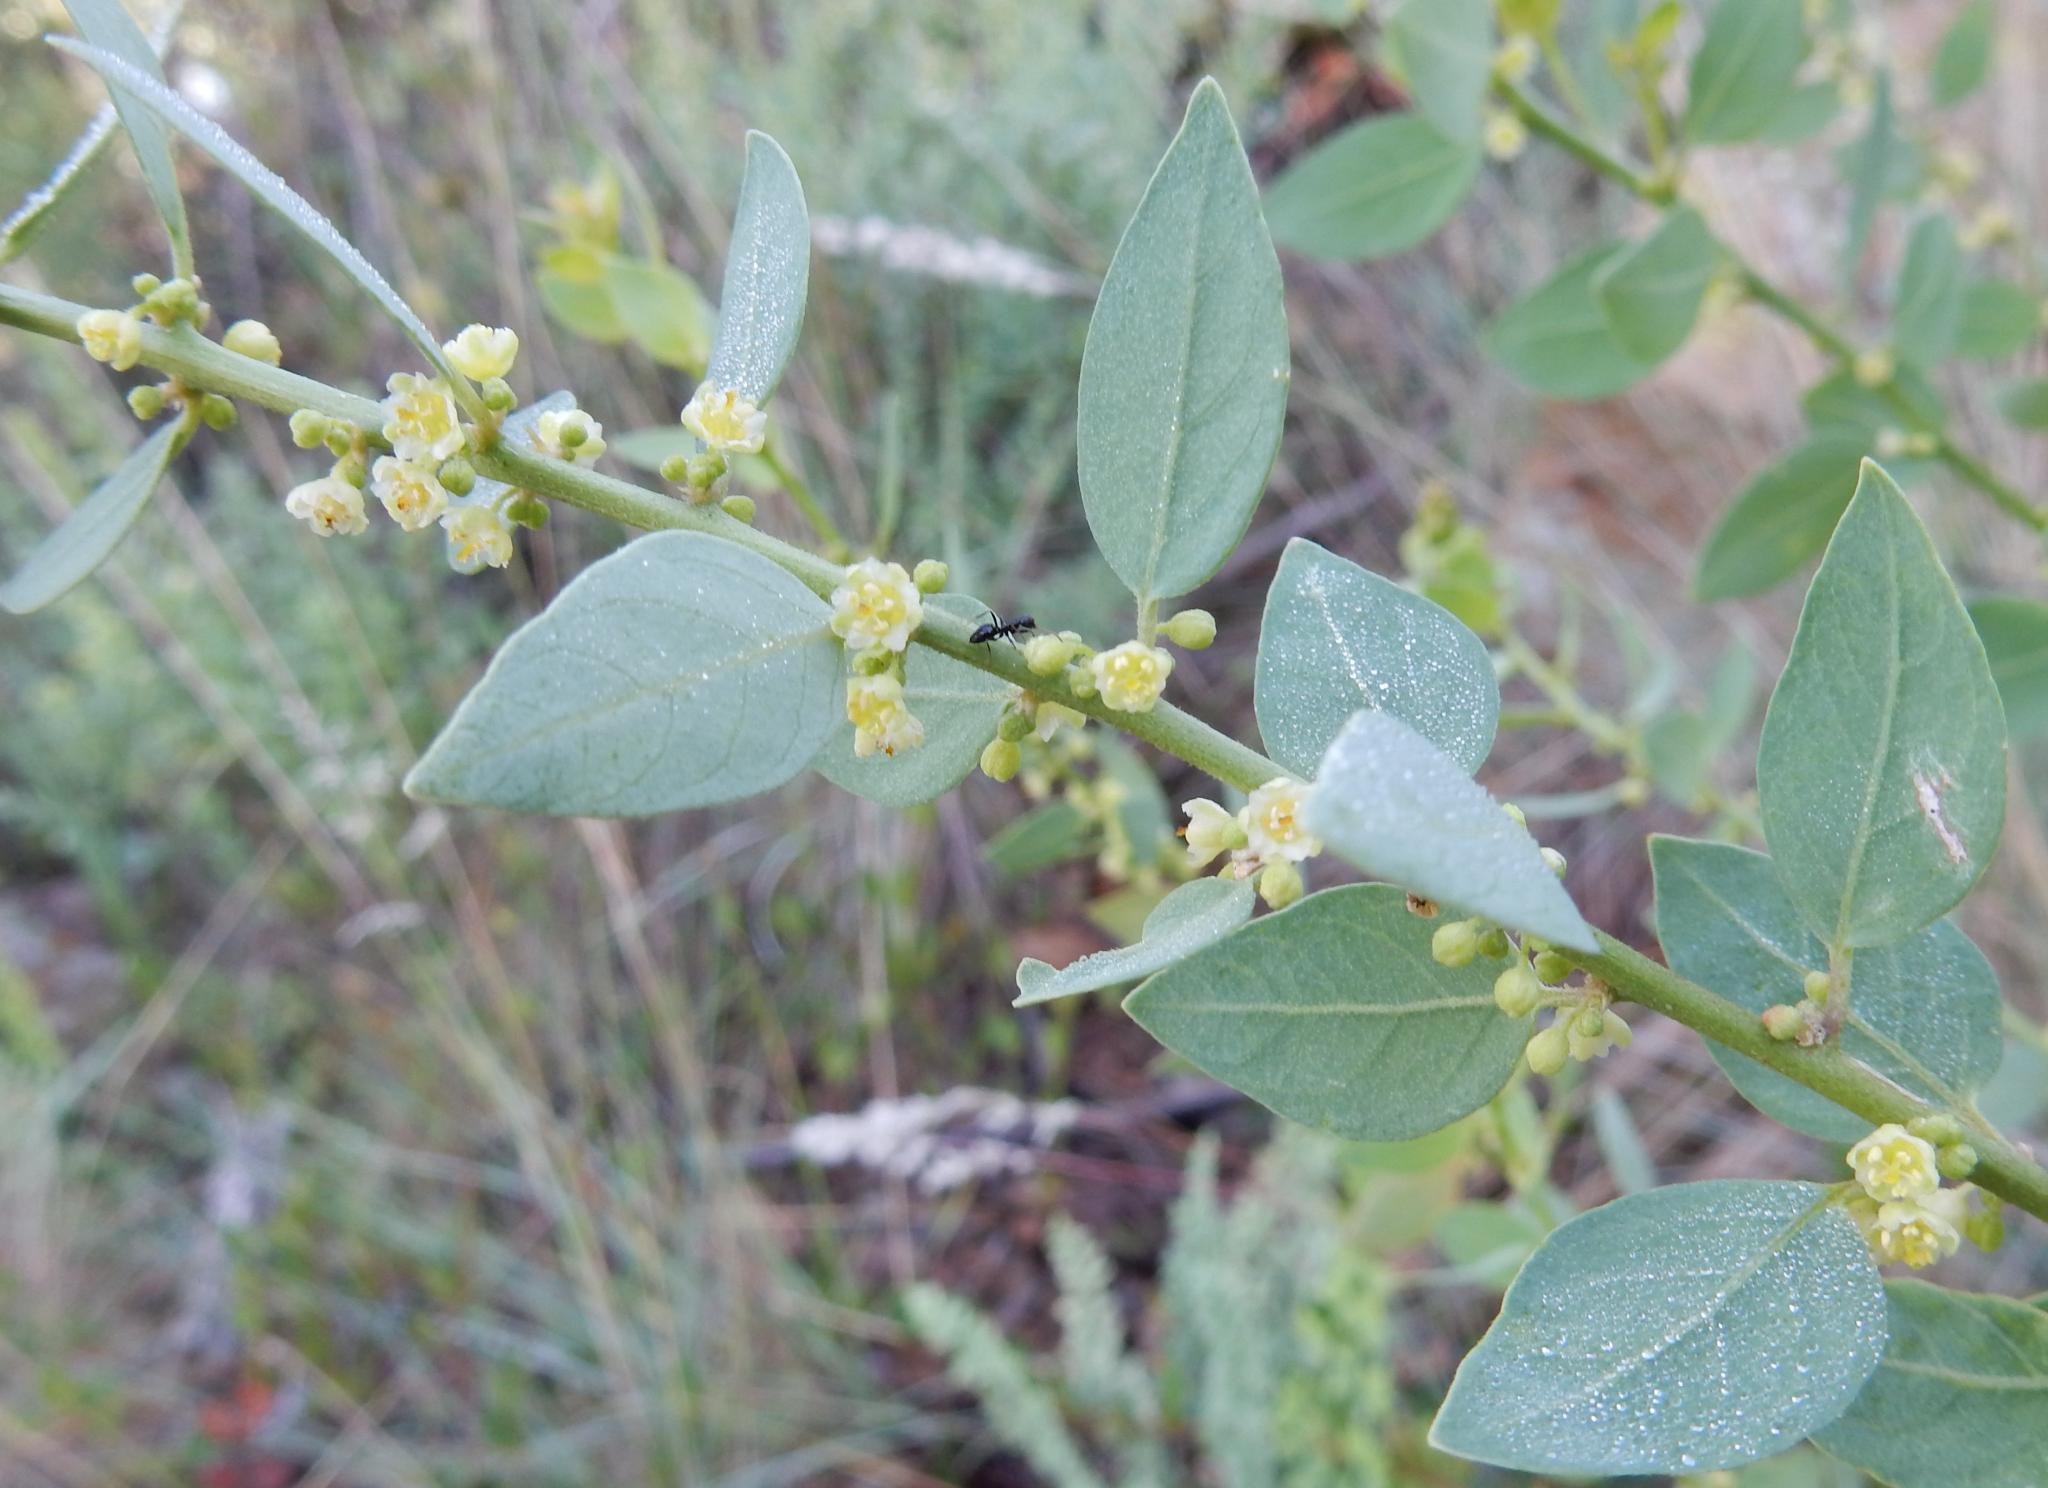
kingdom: Plantae
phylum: Tracheophyta
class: Magnoliopsida
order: Malpighiales
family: Peraceae
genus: Clutia
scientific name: Clutia pulchella
